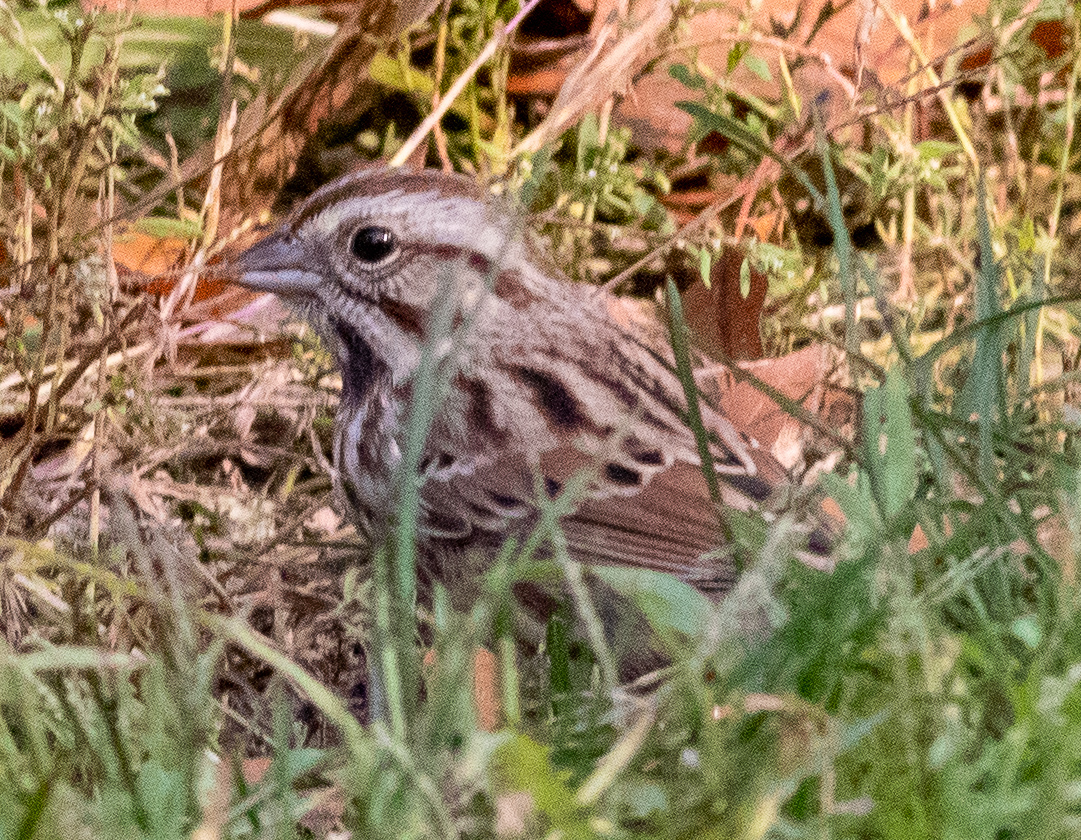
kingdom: Animalia
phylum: Chordata
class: Aves
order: Passeriformes
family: Passerellidae
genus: Melospiza
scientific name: Melospiza melodia
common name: Song sparrow
